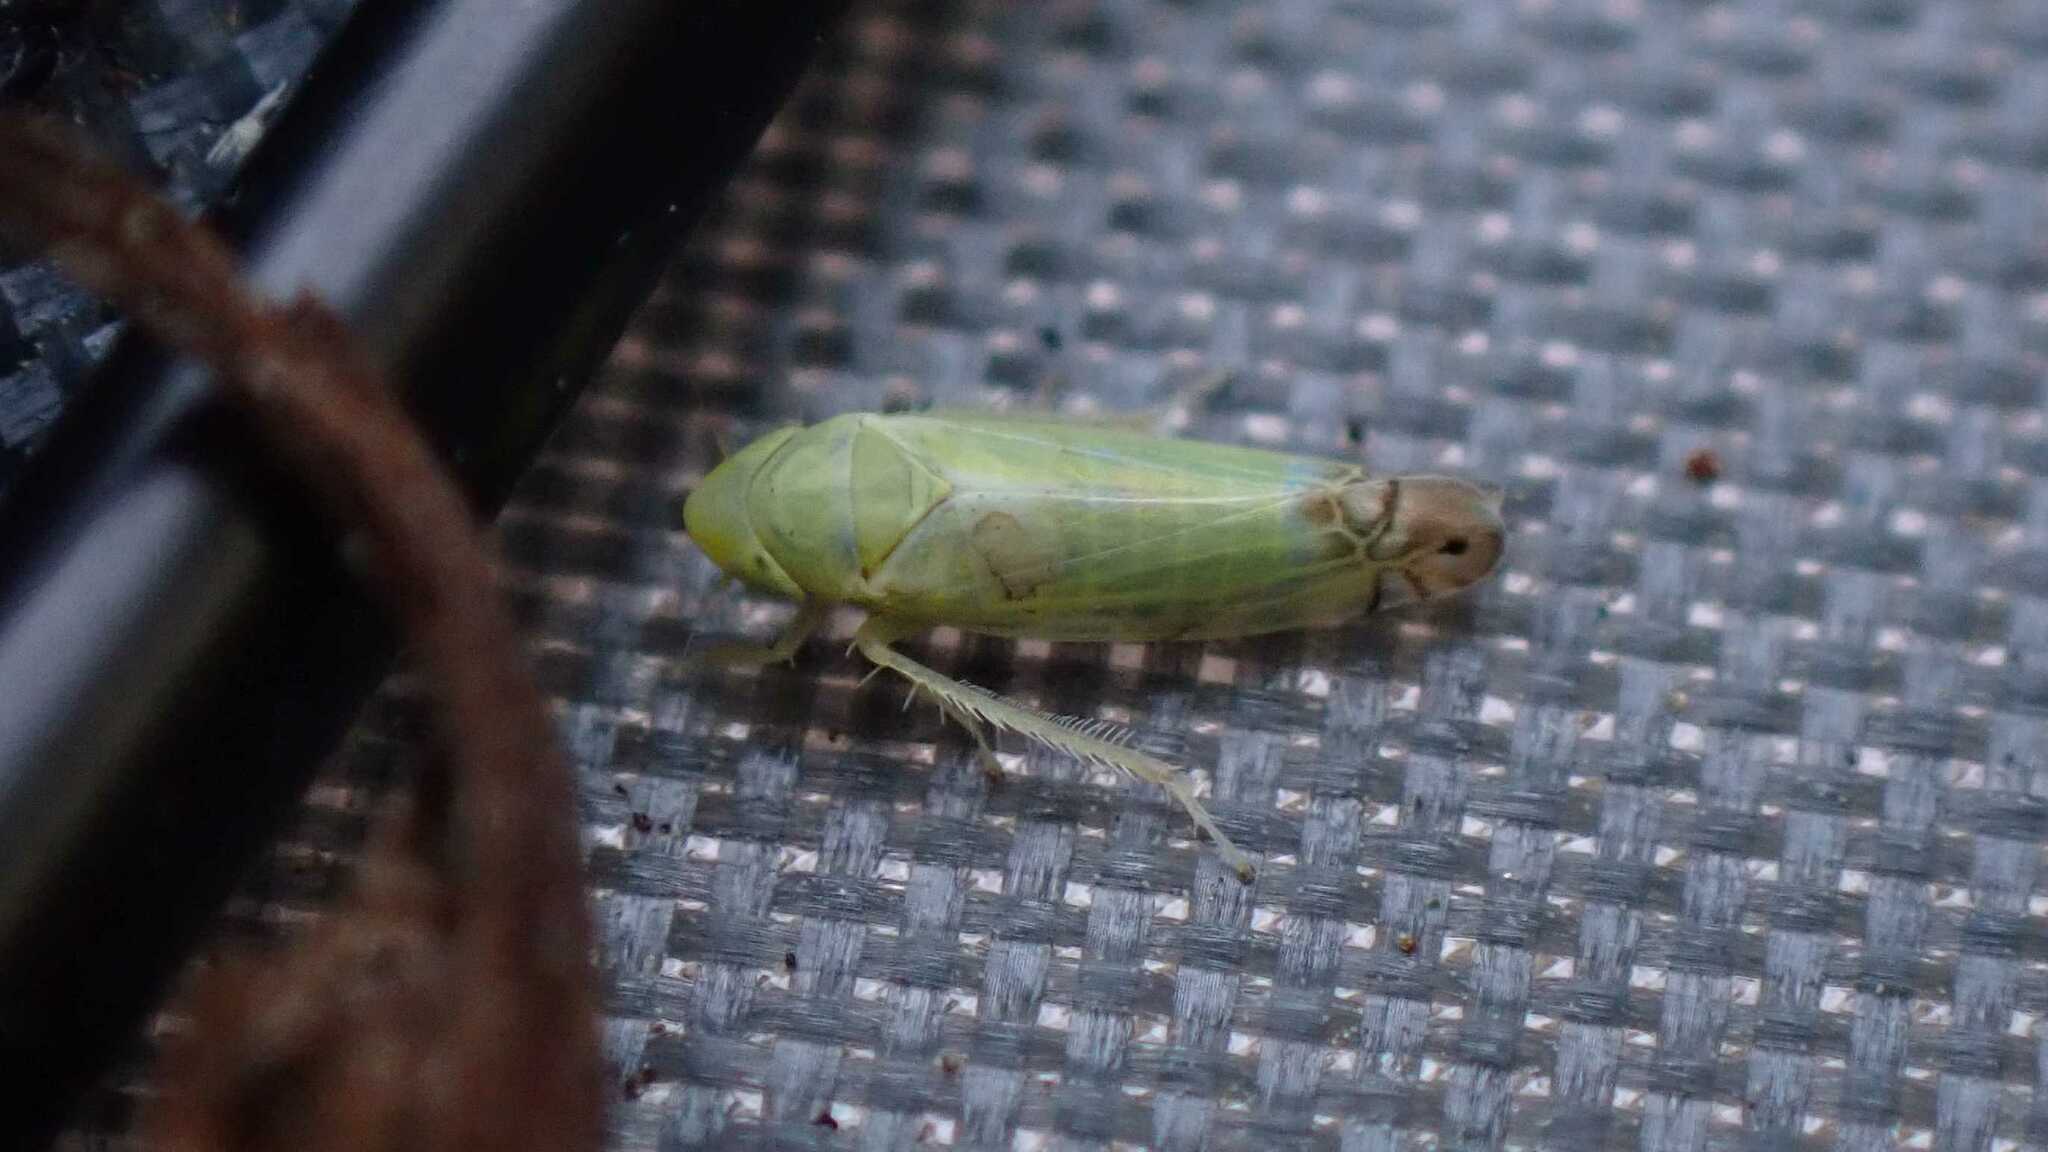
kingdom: Animalia
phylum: Arthropoda
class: Insecta
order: Hemiptera
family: Cicadellidae
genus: Zyginella
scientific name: Zyginella pulchra
